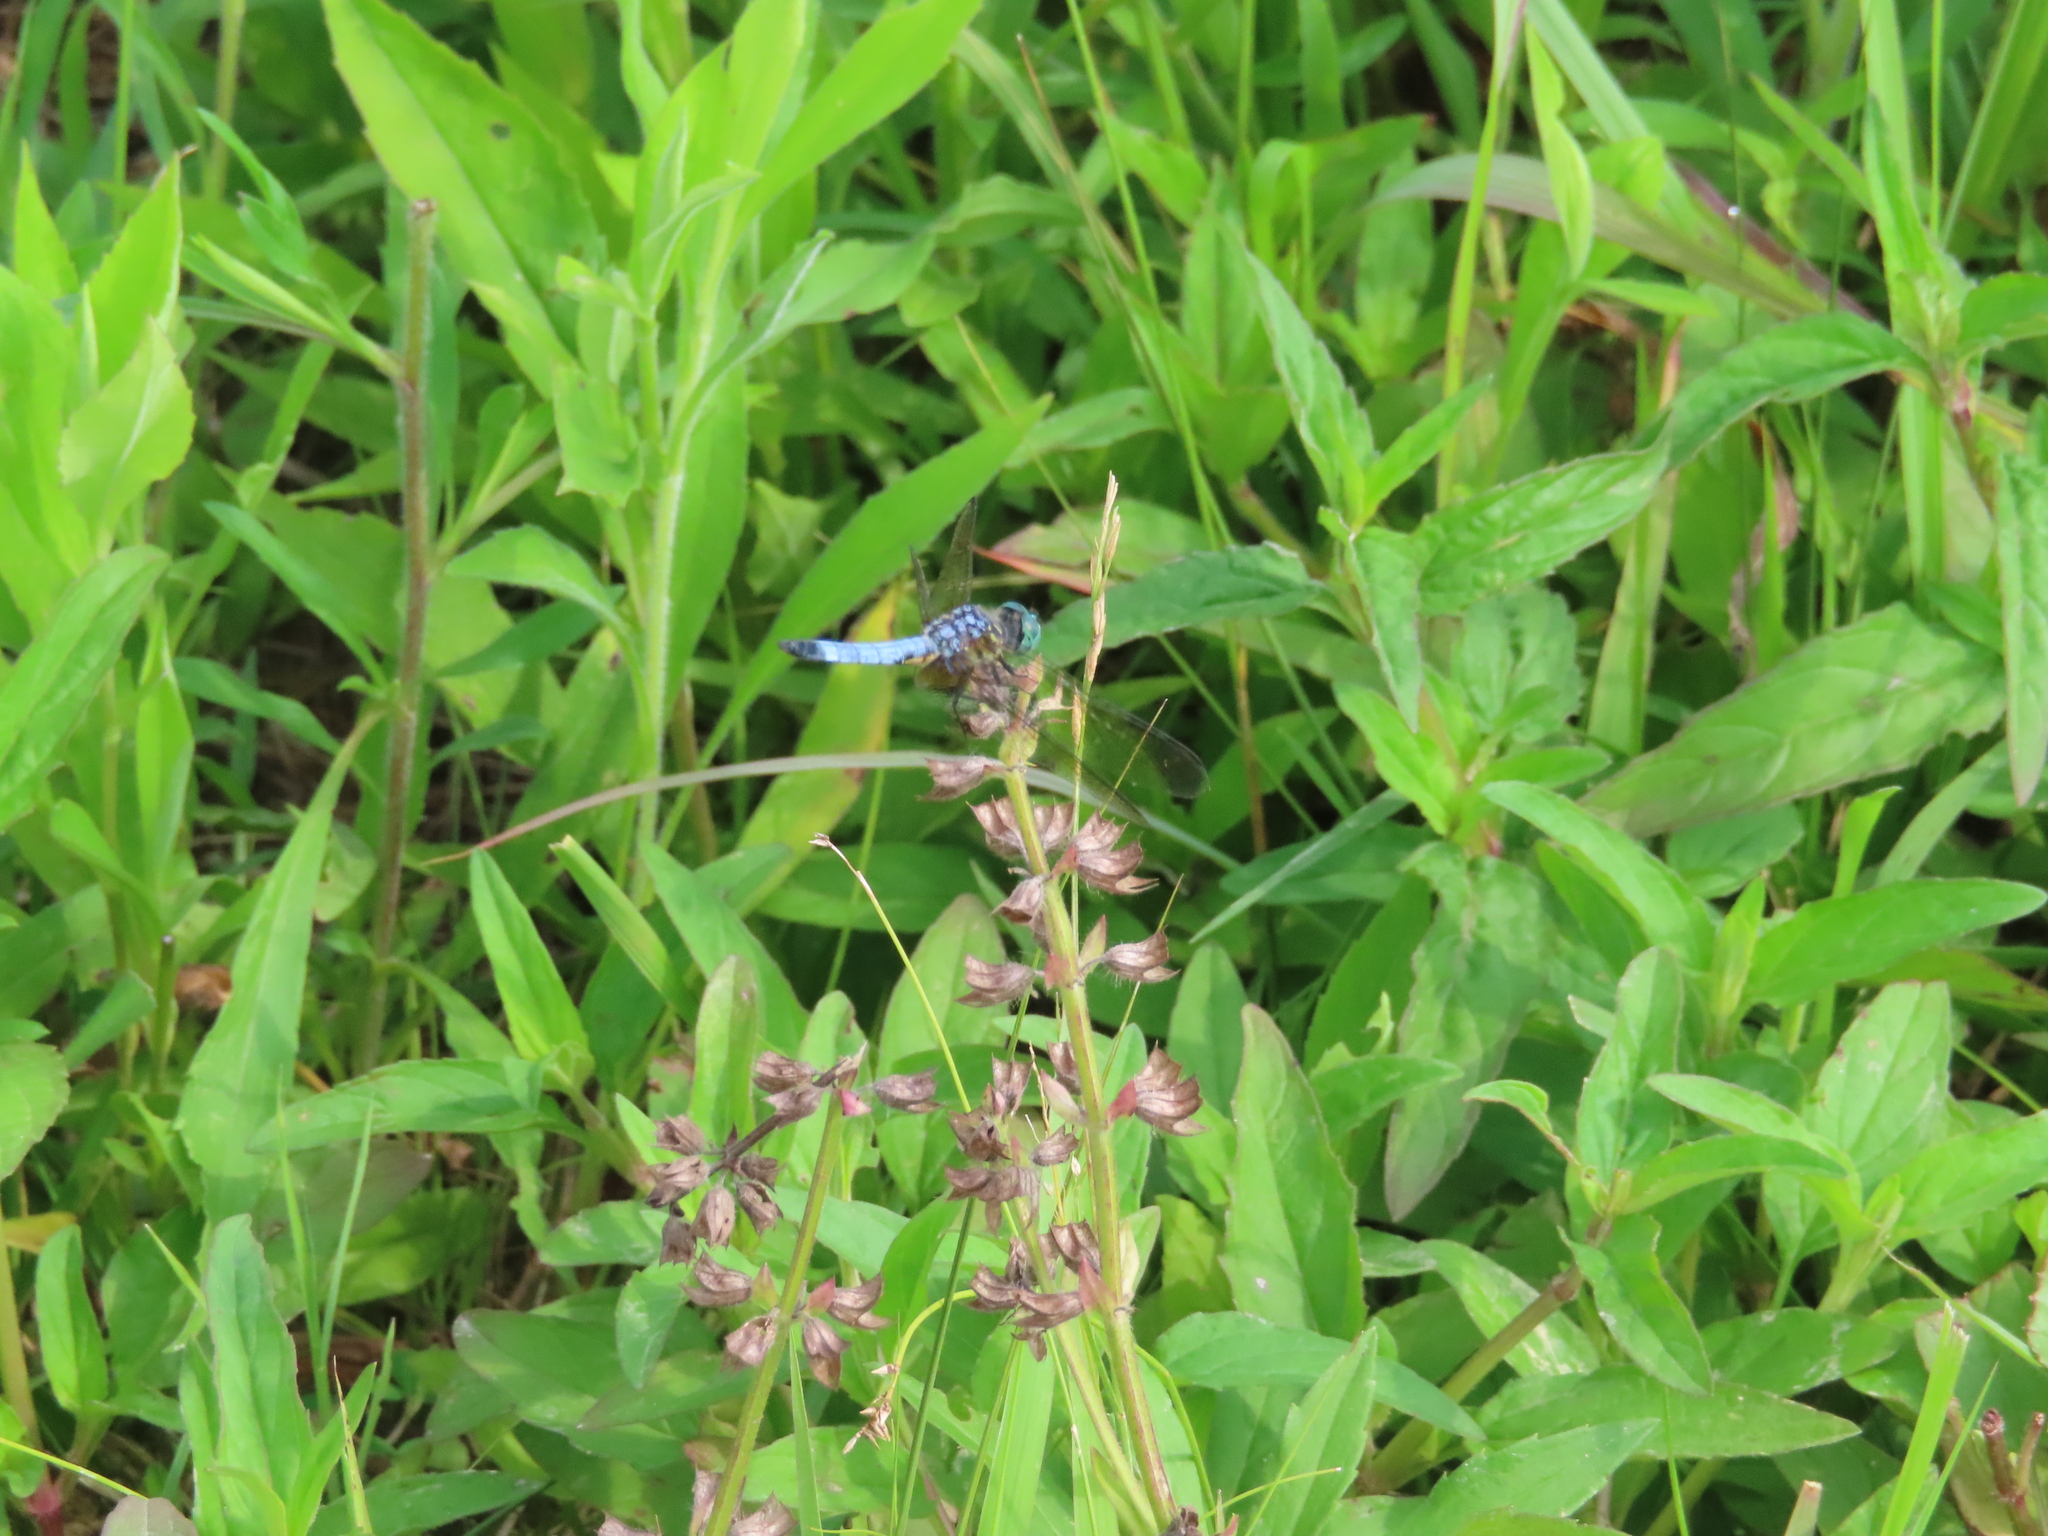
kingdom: Plantae
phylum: Tracheophyta
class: Magnoliopsida
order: Lamiales
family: Lamiaceae
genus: Salvia
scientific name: Salvia lyrata
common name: Cancerweed
